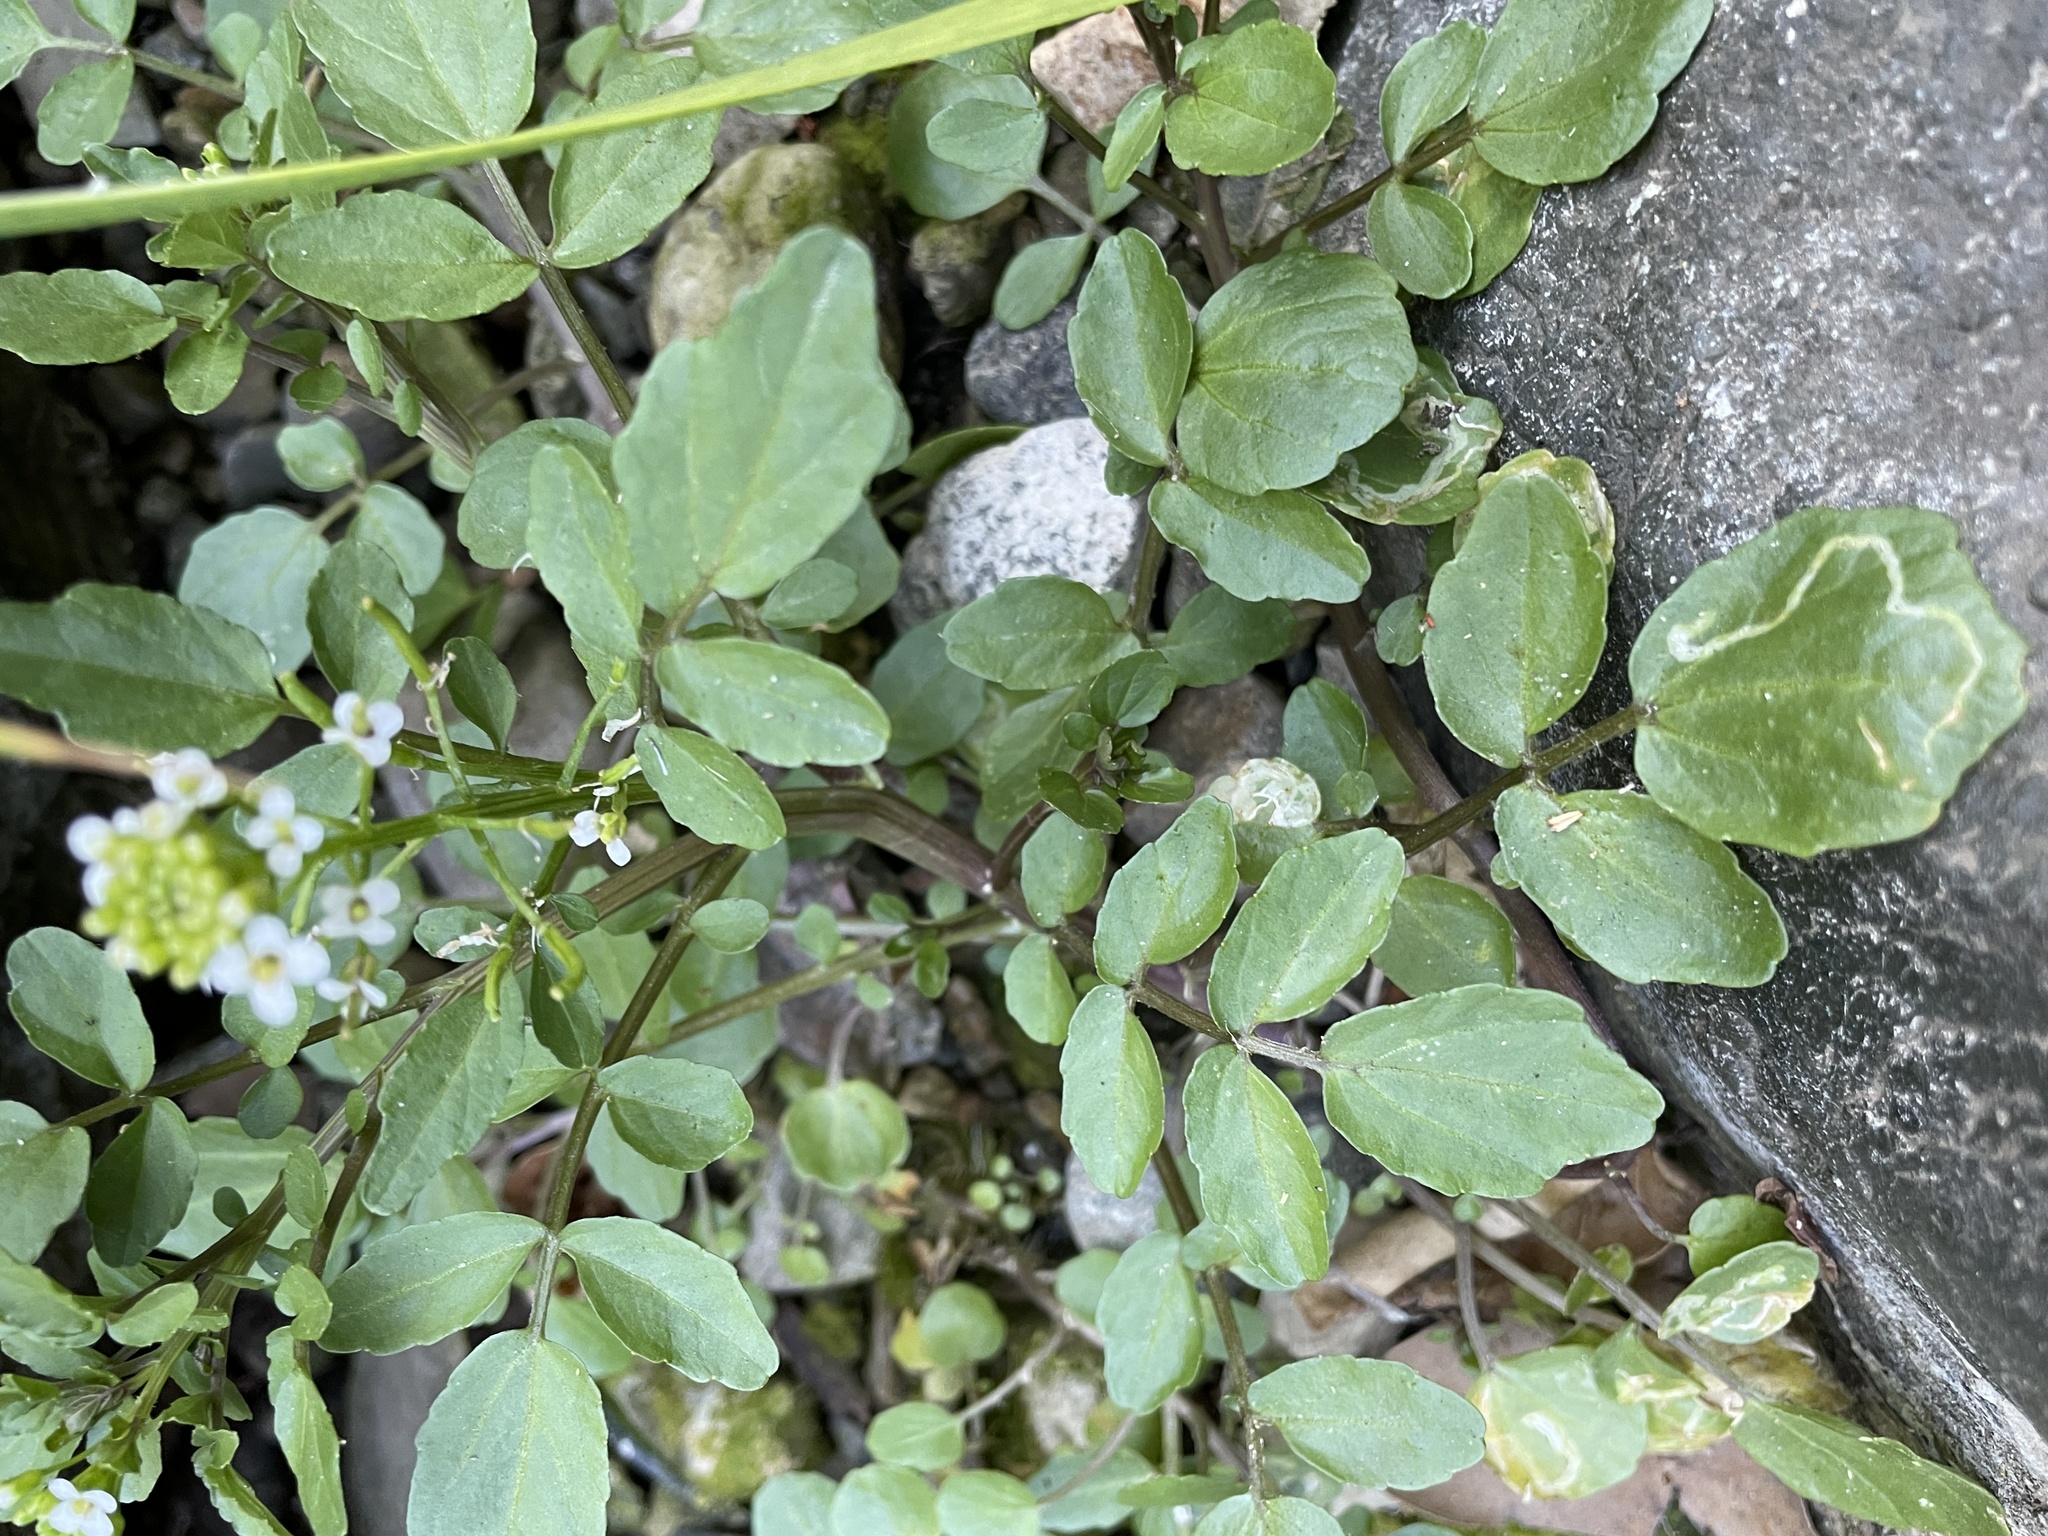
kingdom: Plantae
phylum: Tracheophyta
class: Magnoliopsida
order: Brassicales
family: Brassicaceae
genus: Nasturtium
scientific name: Nasturtium officinale
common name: Watercress
